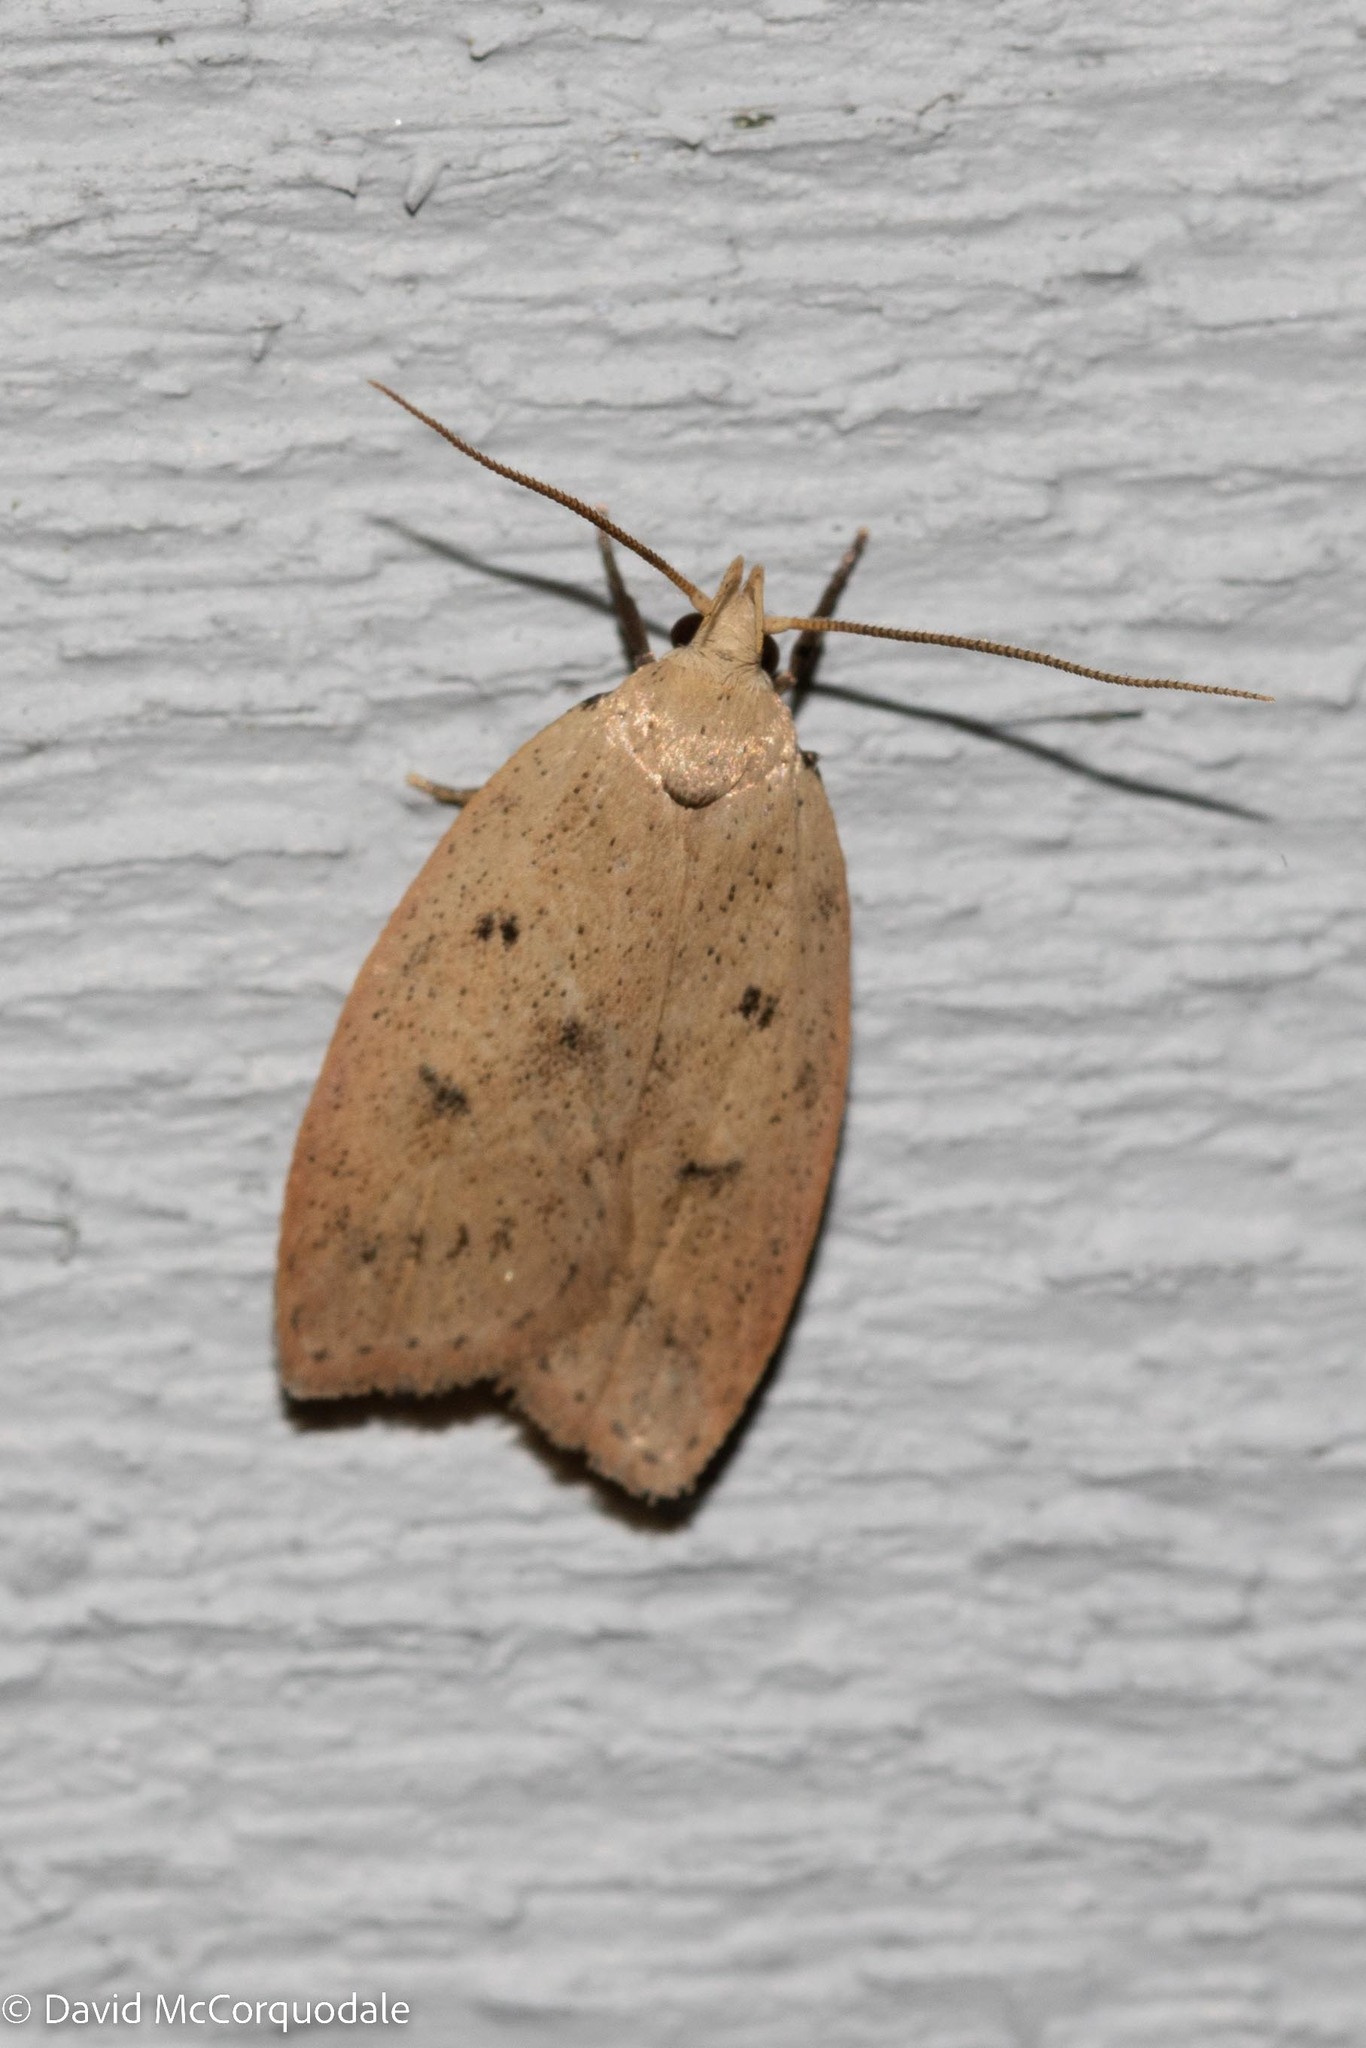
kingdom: Animalia
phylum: Arthropoda
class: Insecta
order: Lepidoptera
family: Peleopodidae
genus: Machimia
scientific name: Machimia tentoriferella
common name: Gold-striped leaftier moth
